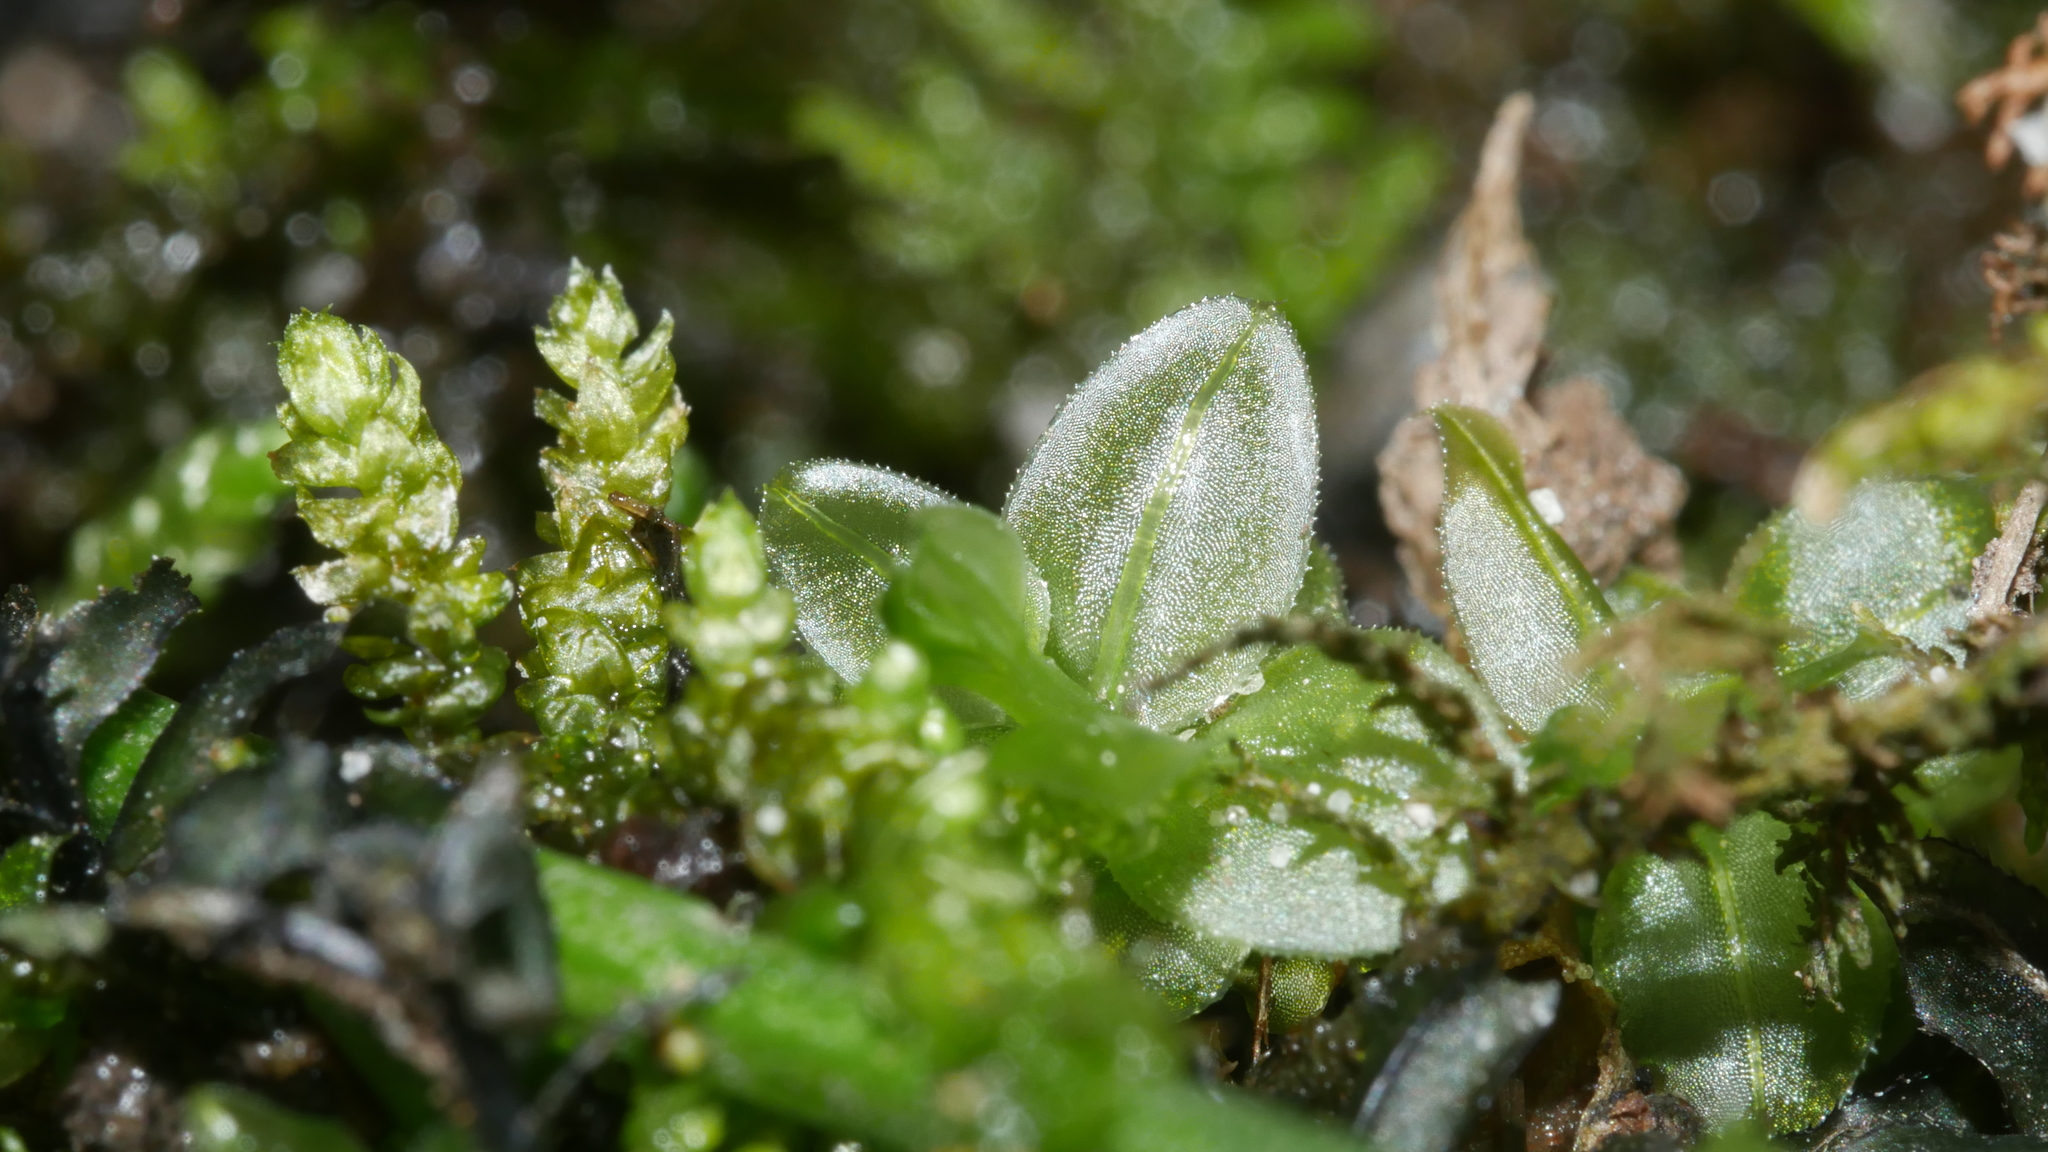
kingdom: Plantae
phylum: Bryophyta
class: Bryopsida
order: Bryales
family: Mniaceae
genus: Plagiomnium
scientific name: Plagiomnium
